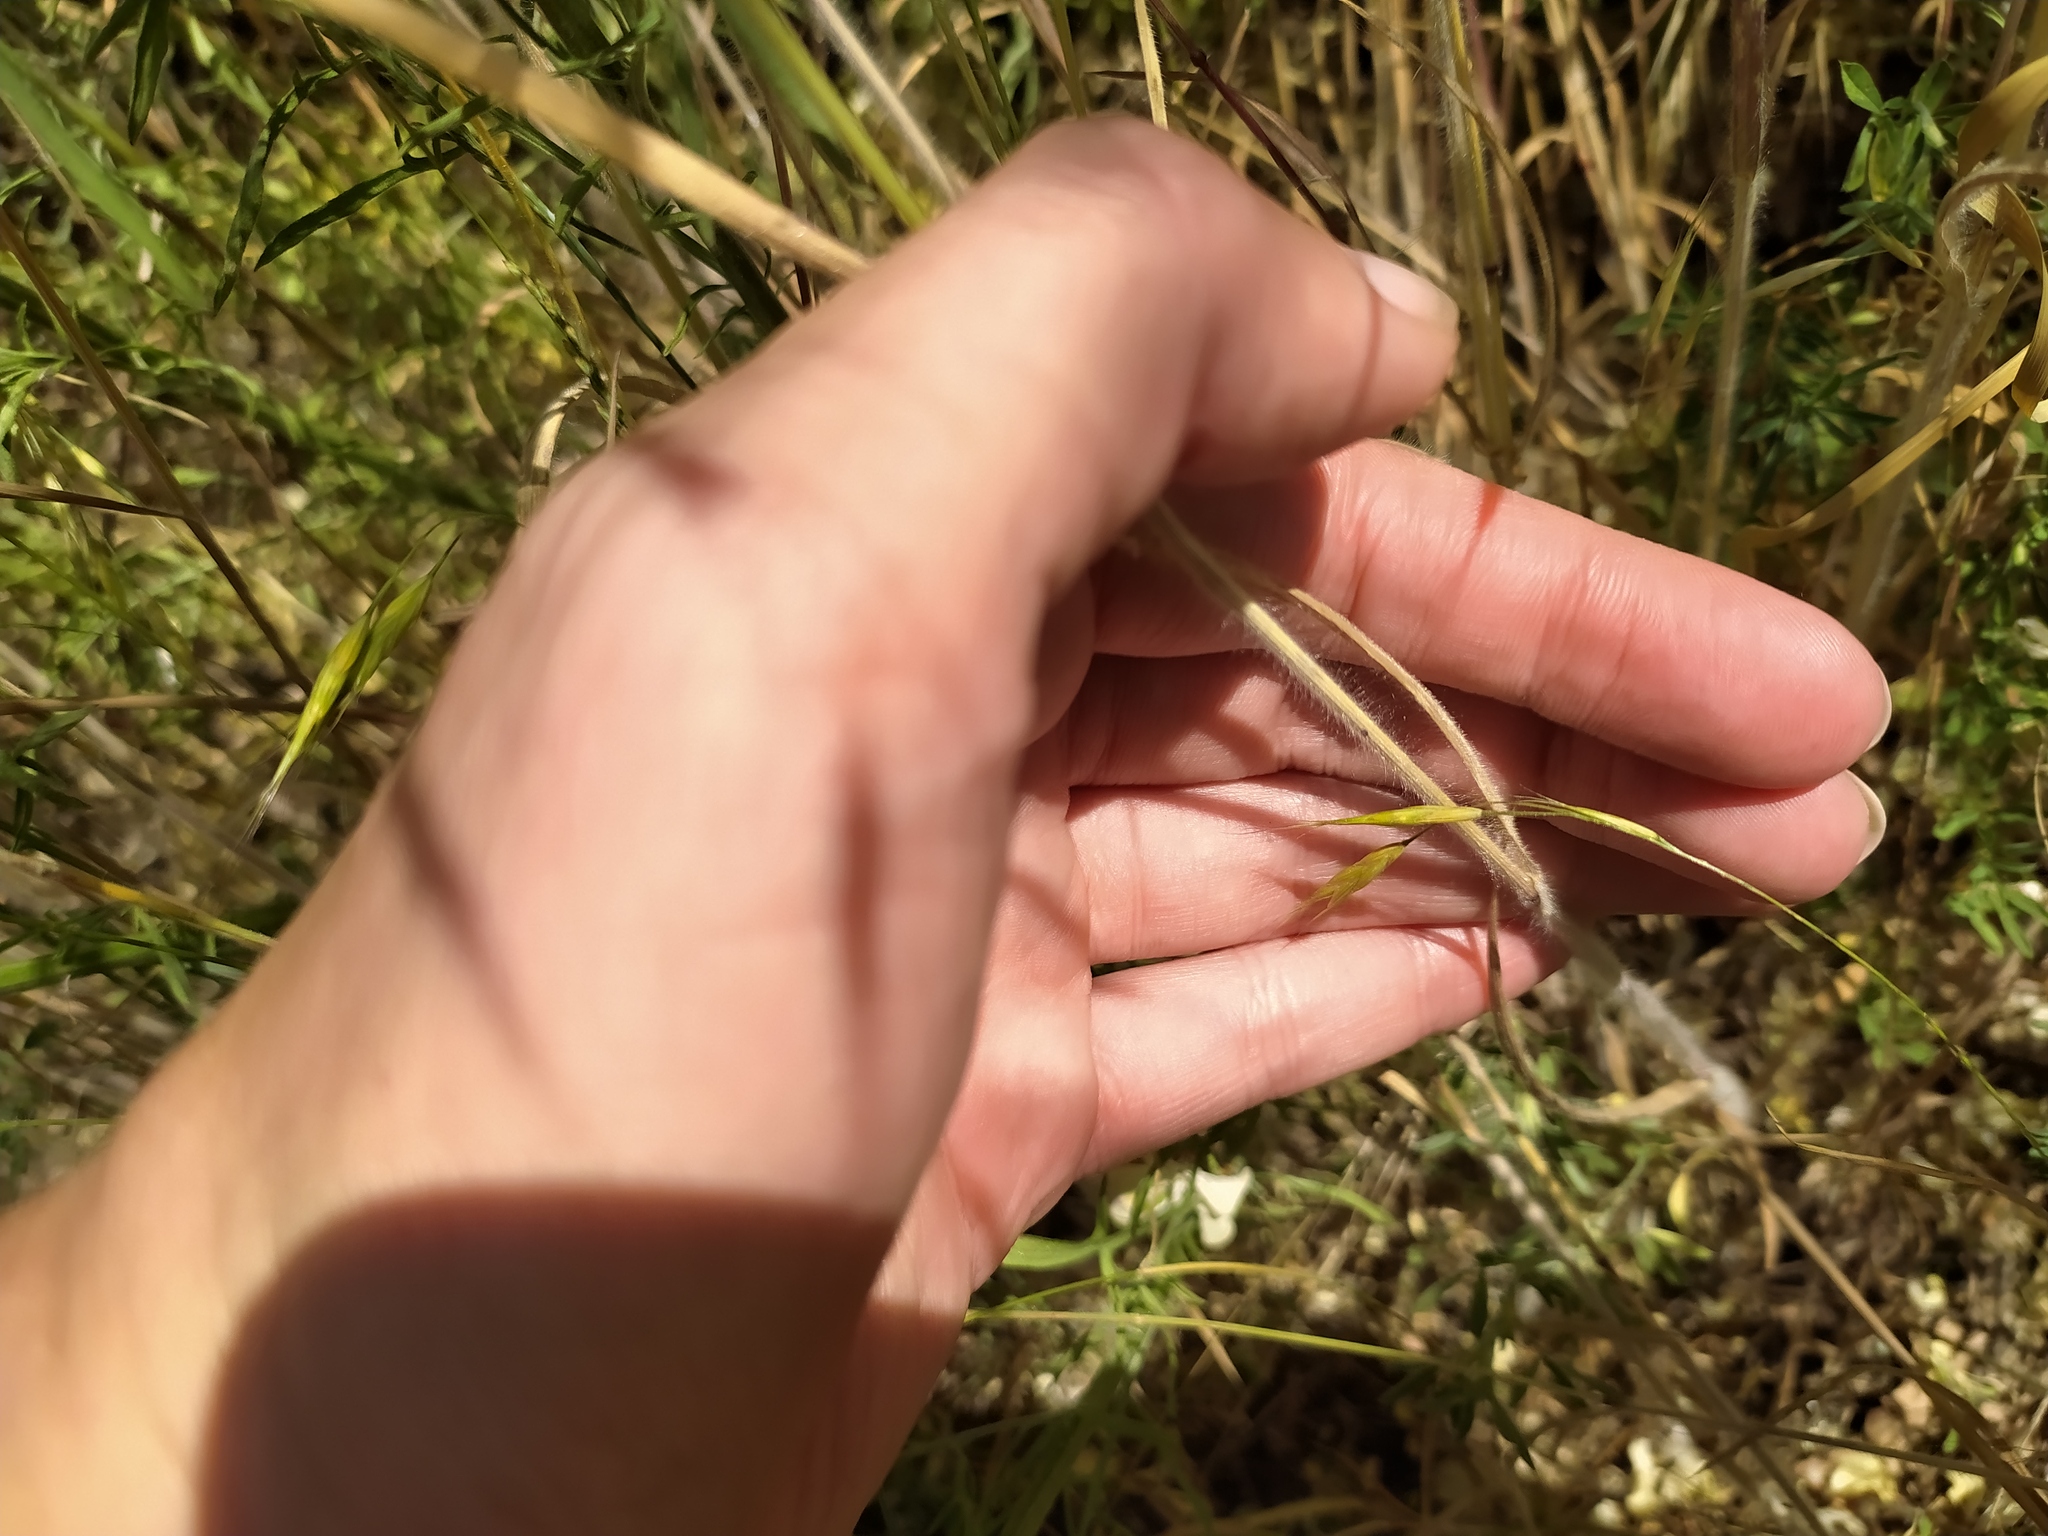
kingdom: Plantae
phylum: Tracheophyta
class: Liliopsida
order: Poales
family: Poaceae
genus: Bromus
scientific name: Bromus japonicus
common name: Japanese brome
